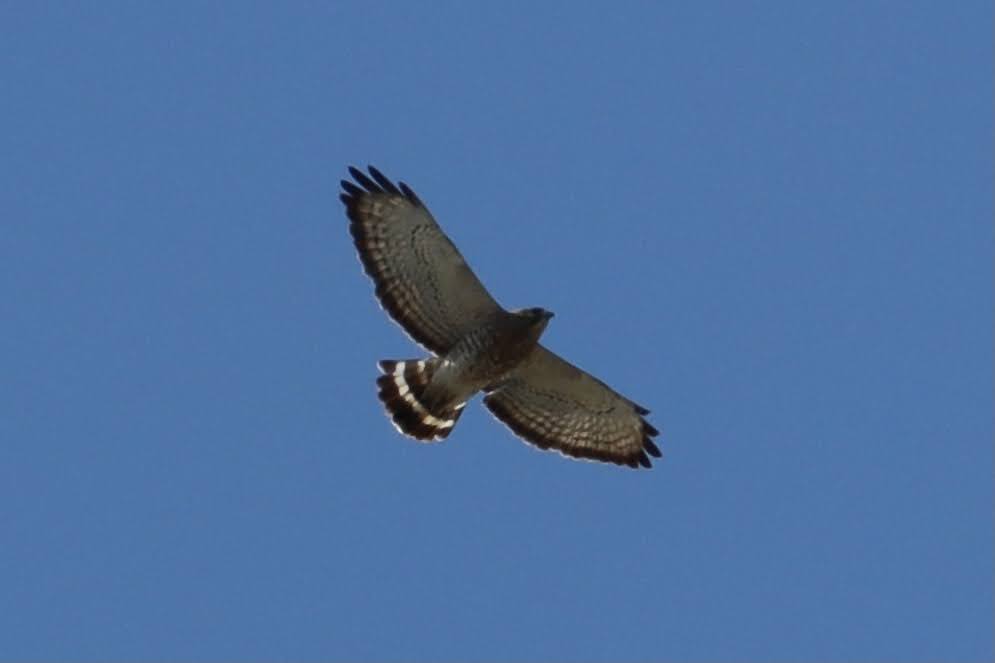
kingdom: Animalia
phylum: Chordata
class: Aves
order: Accipitriformes
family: Accipitridae
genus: Buteo
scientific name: Buteo platypterus
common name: Broad-winged hawk
